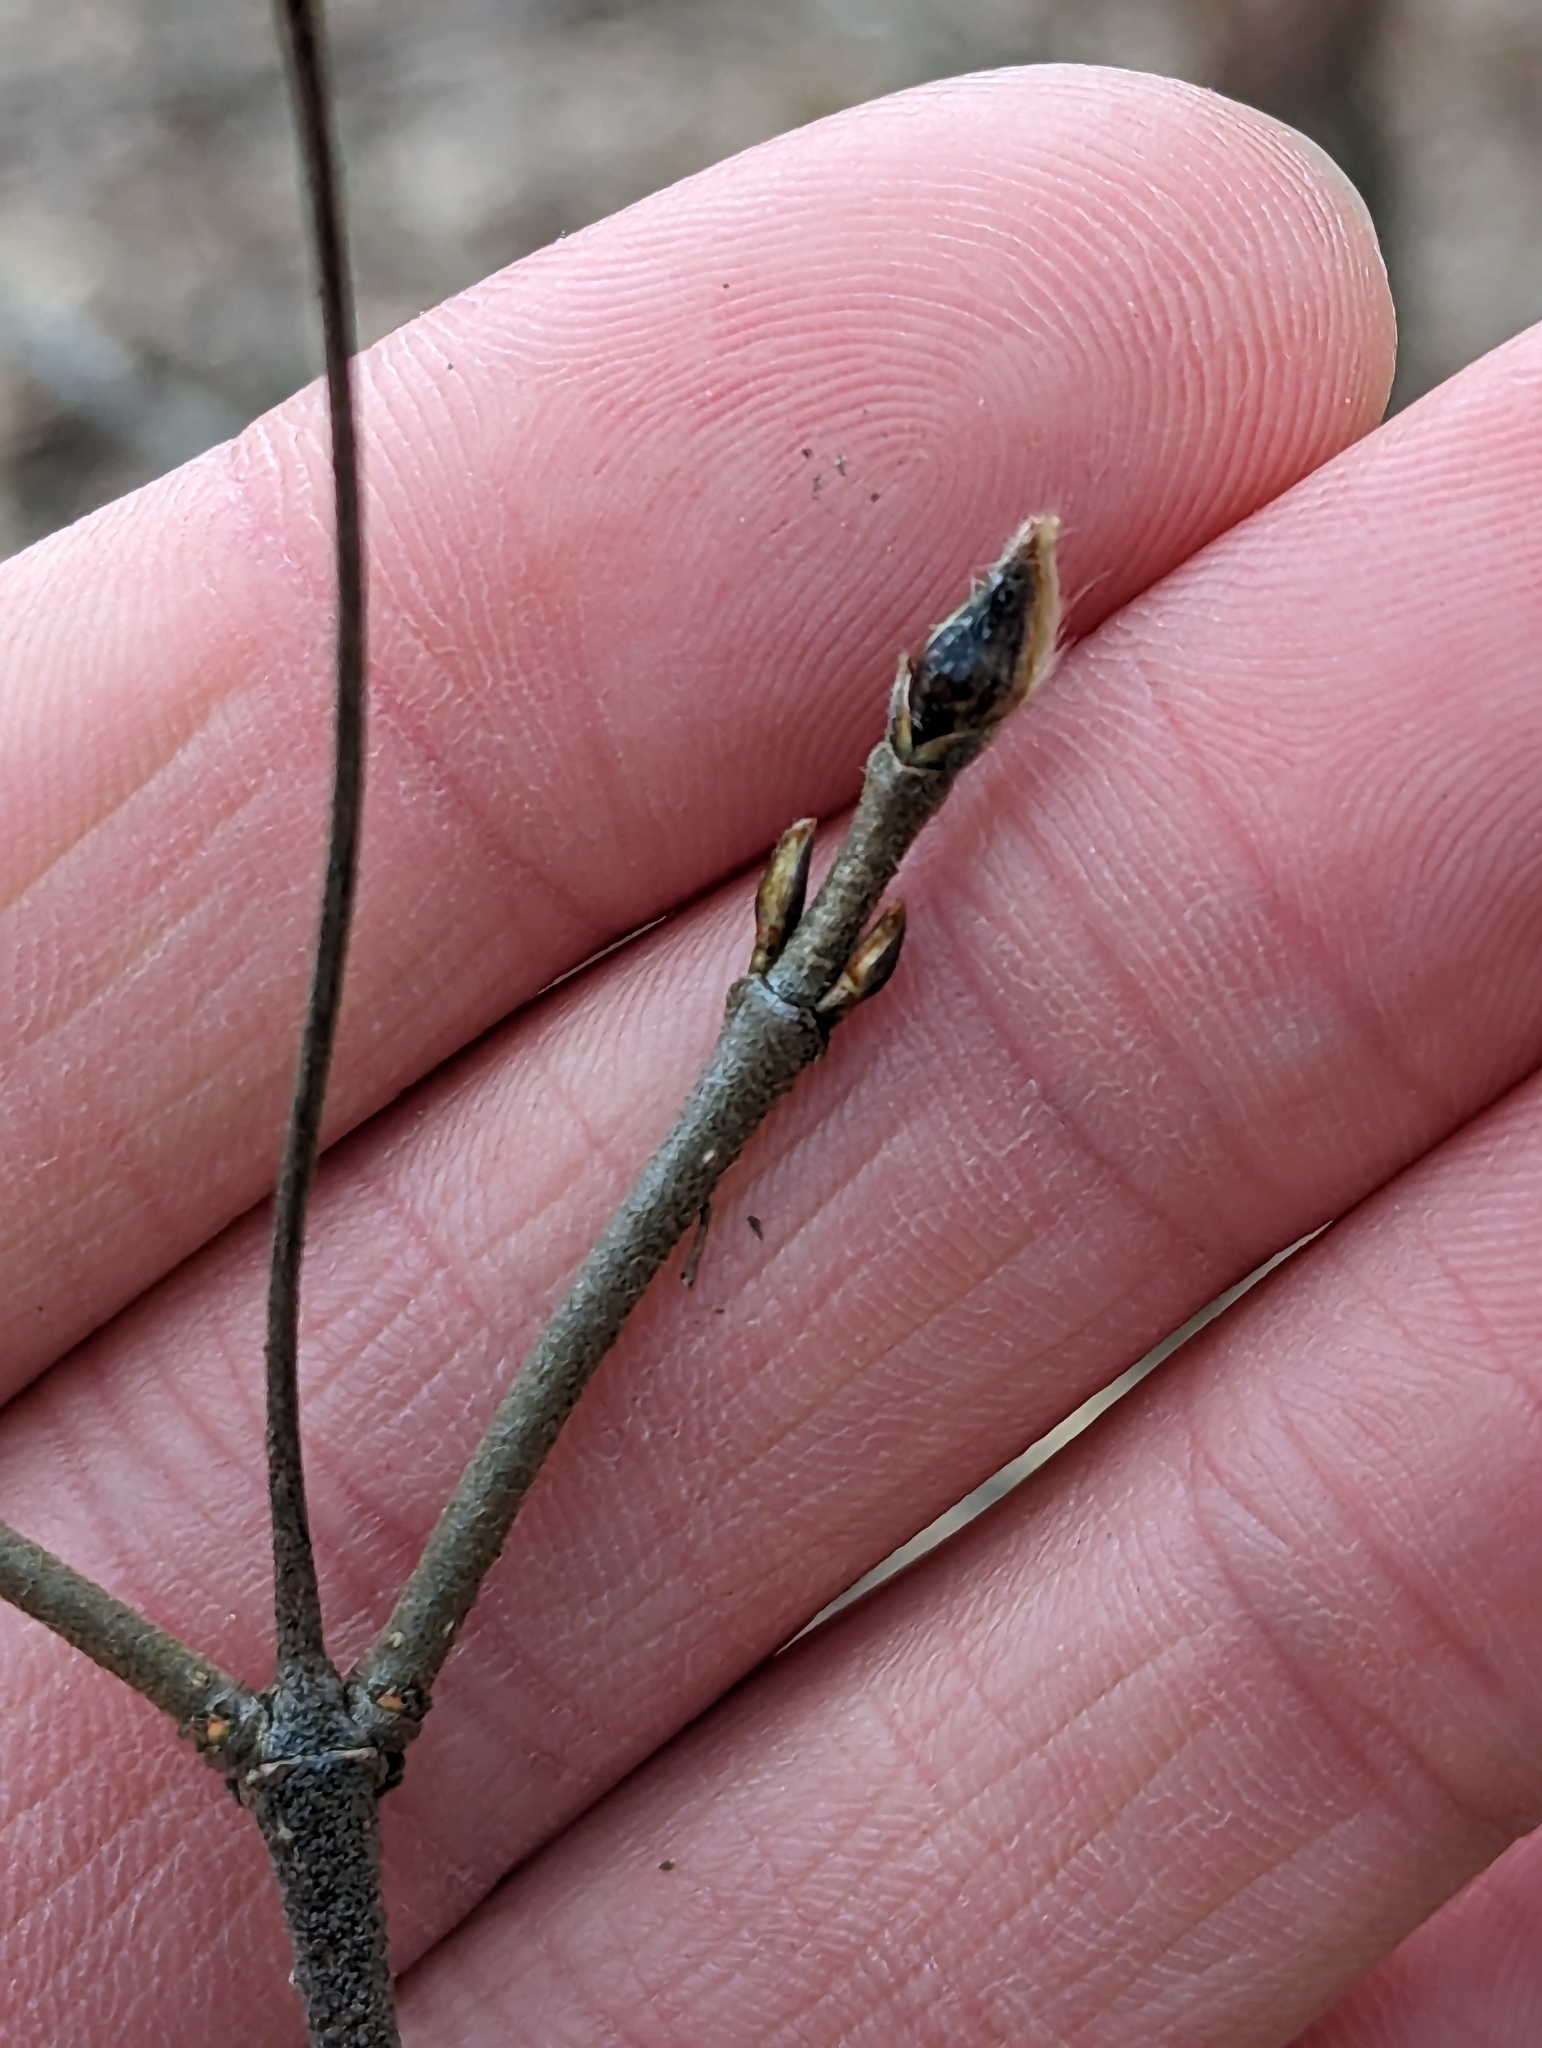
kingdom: Plantae
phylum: Tracheophyta
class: Magnoliopsida
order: Dipsacales
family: Viburnaceae
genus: Viburnum
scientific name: Viburnum acerifolium
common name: Dockmackie
